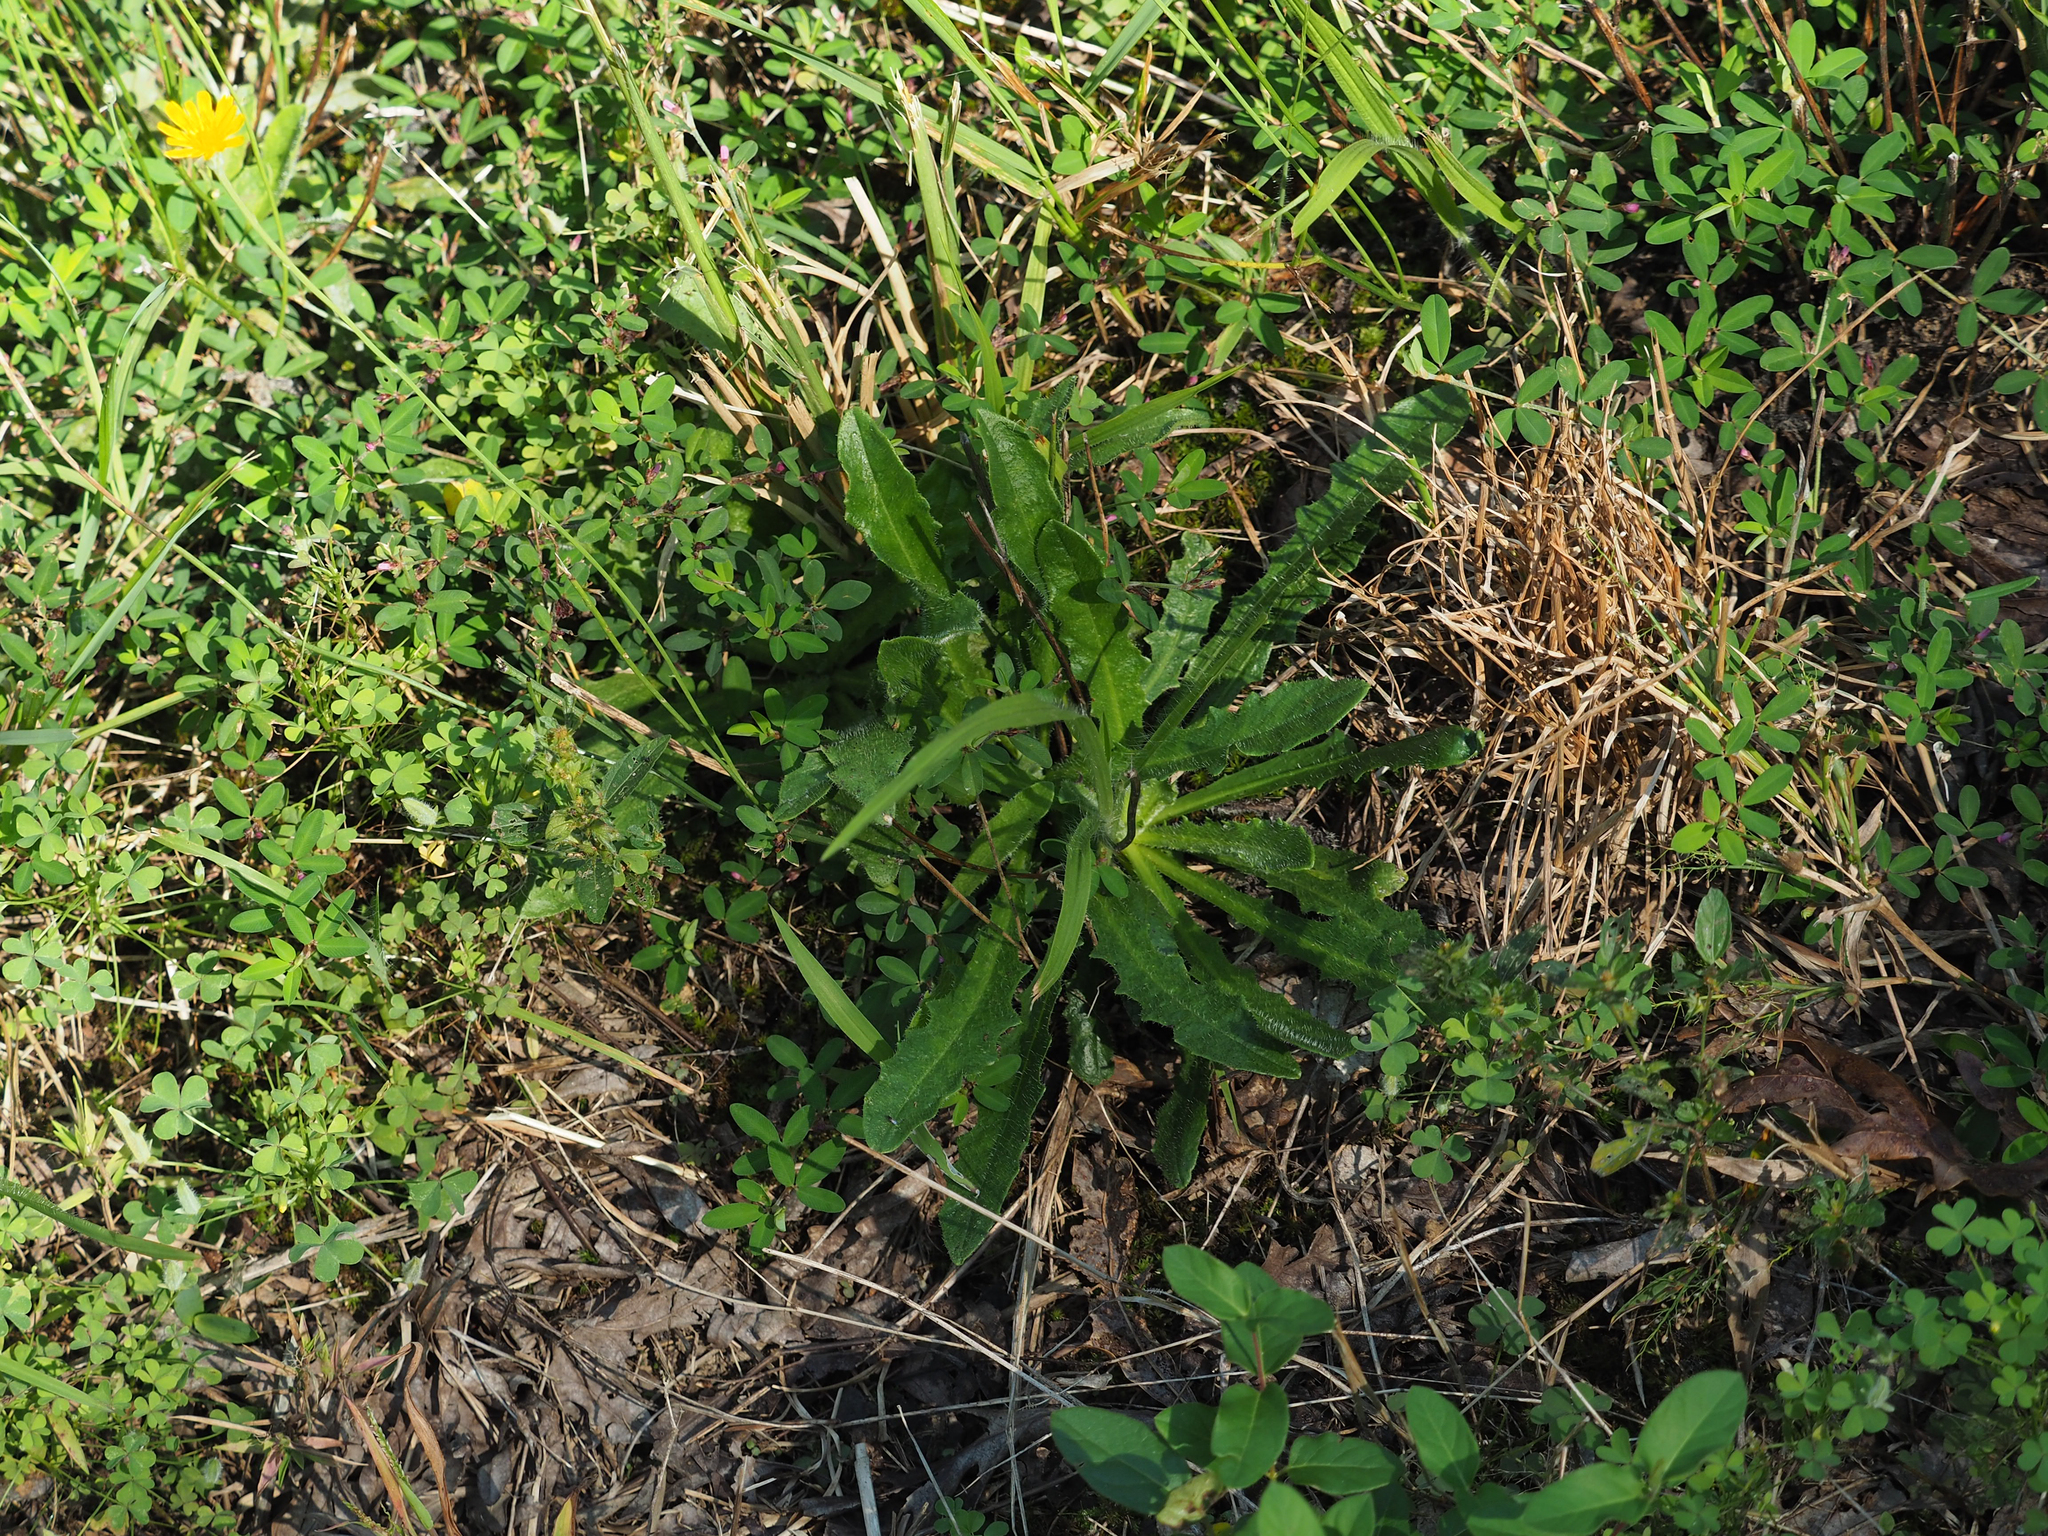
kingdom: Plantae
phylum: Tracheophyta
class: Magnoliopsida
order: Asterales
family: Asteraceae
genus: Hypochaeris
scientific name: Hypochaeris radicata
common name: Flatweed
